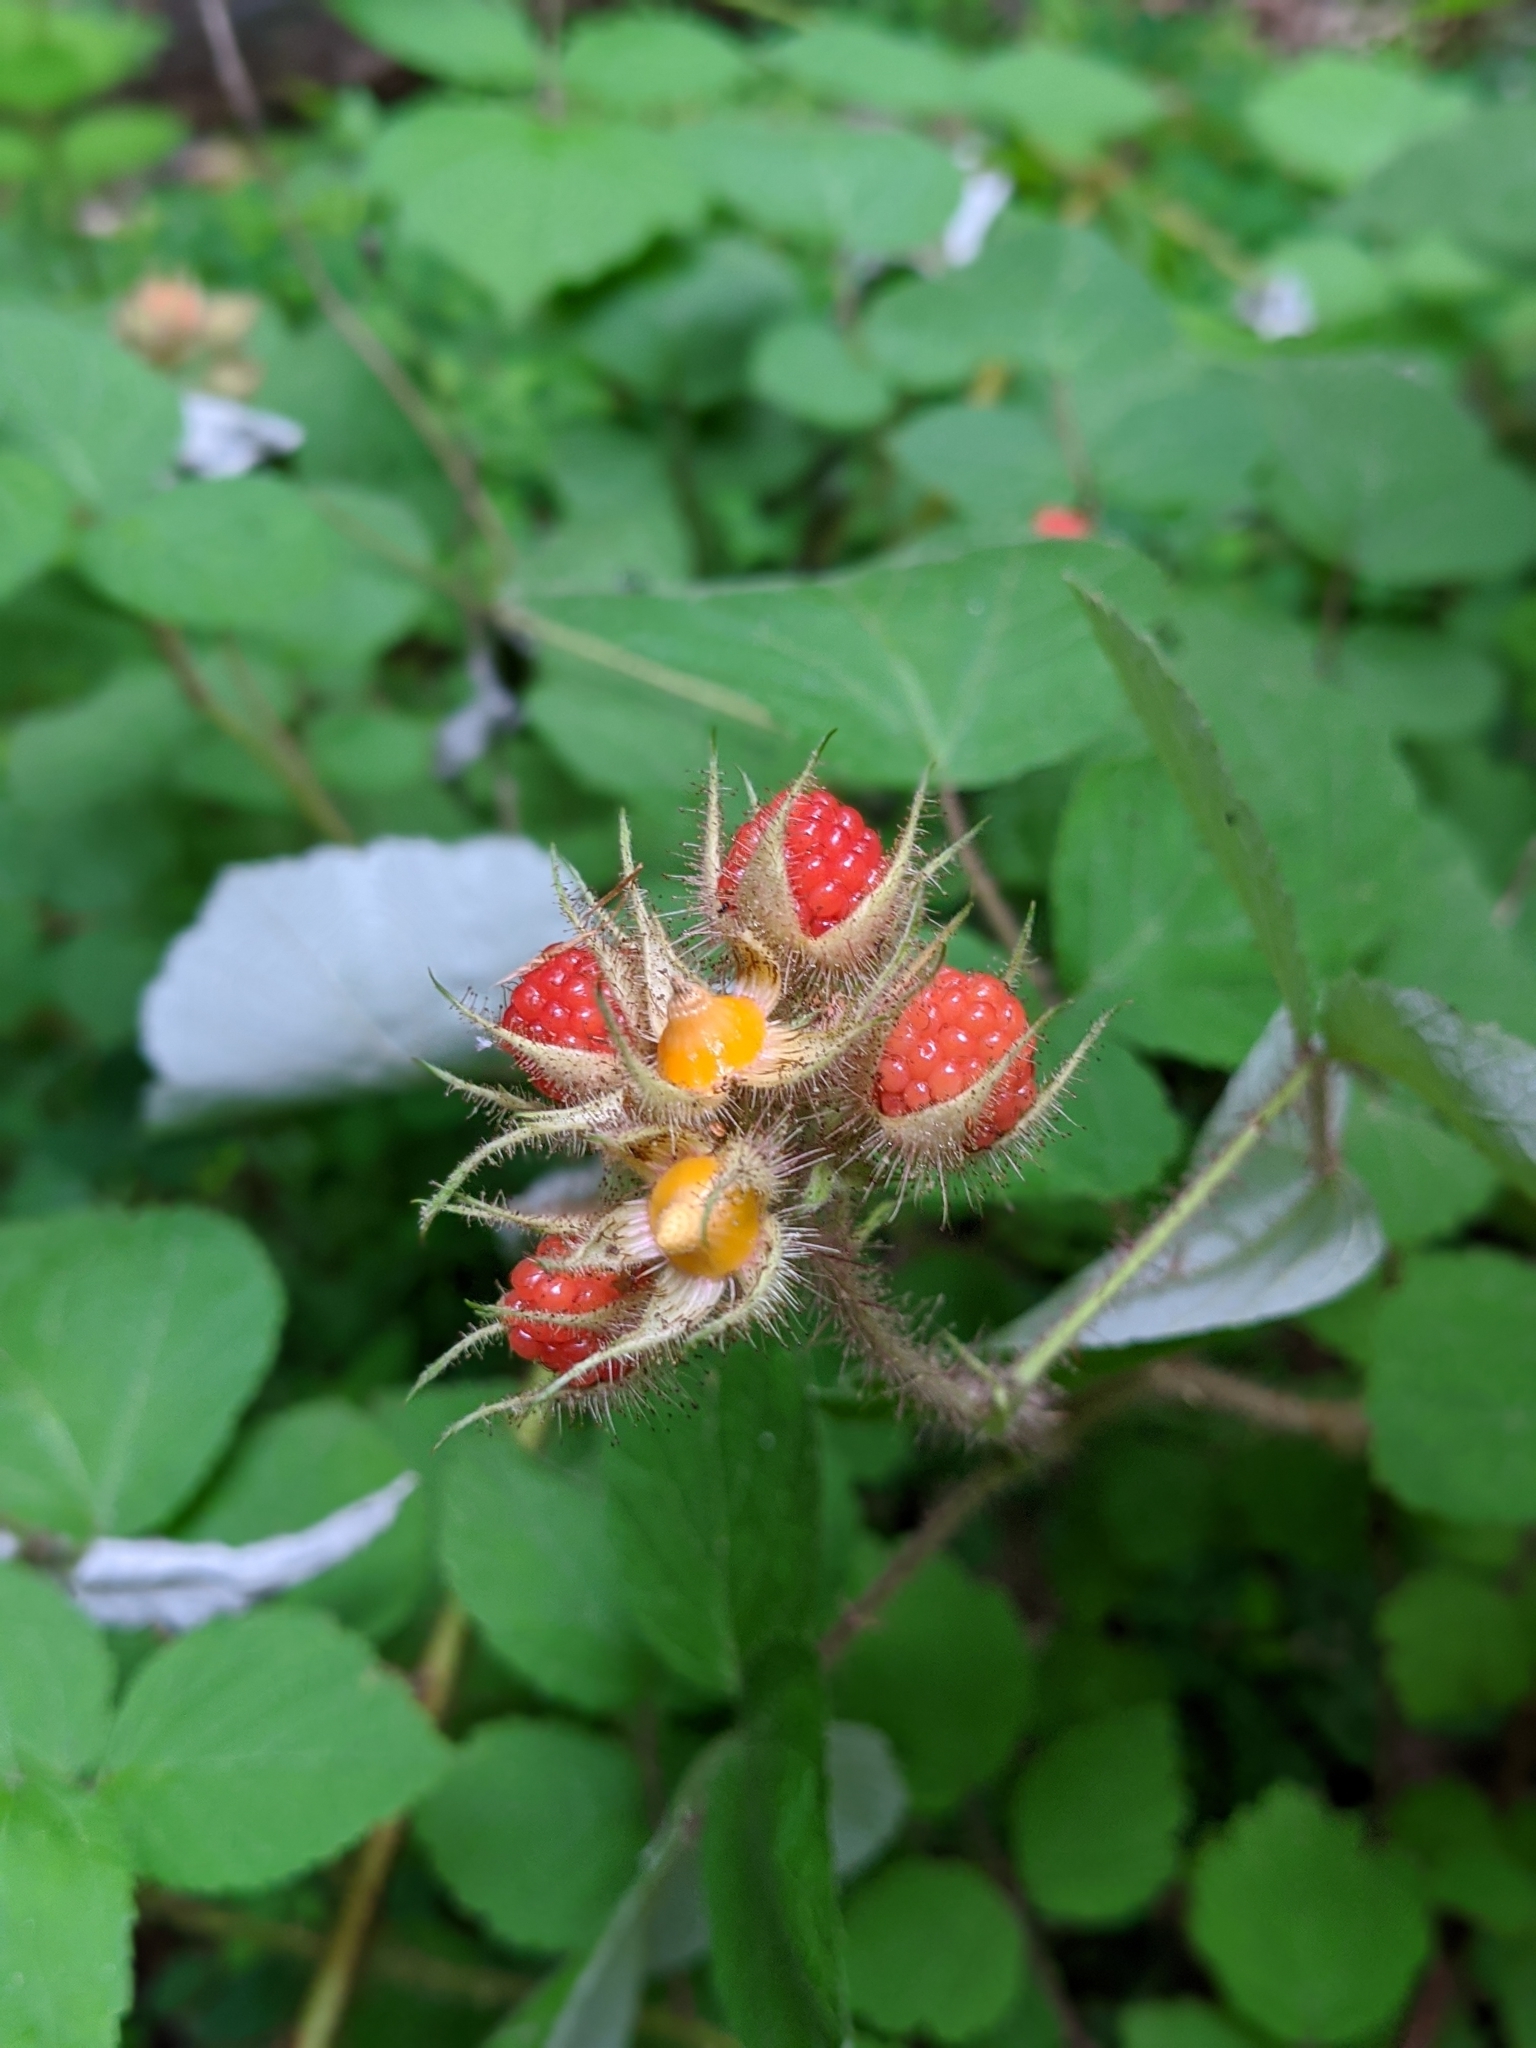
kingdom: Plantae
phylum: Tracheophyta
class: Magnoliopsida
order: Rosales
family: Rosaceae
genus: Rubus
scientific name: Rubus phoenicolasius
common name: Japanese wineberry
